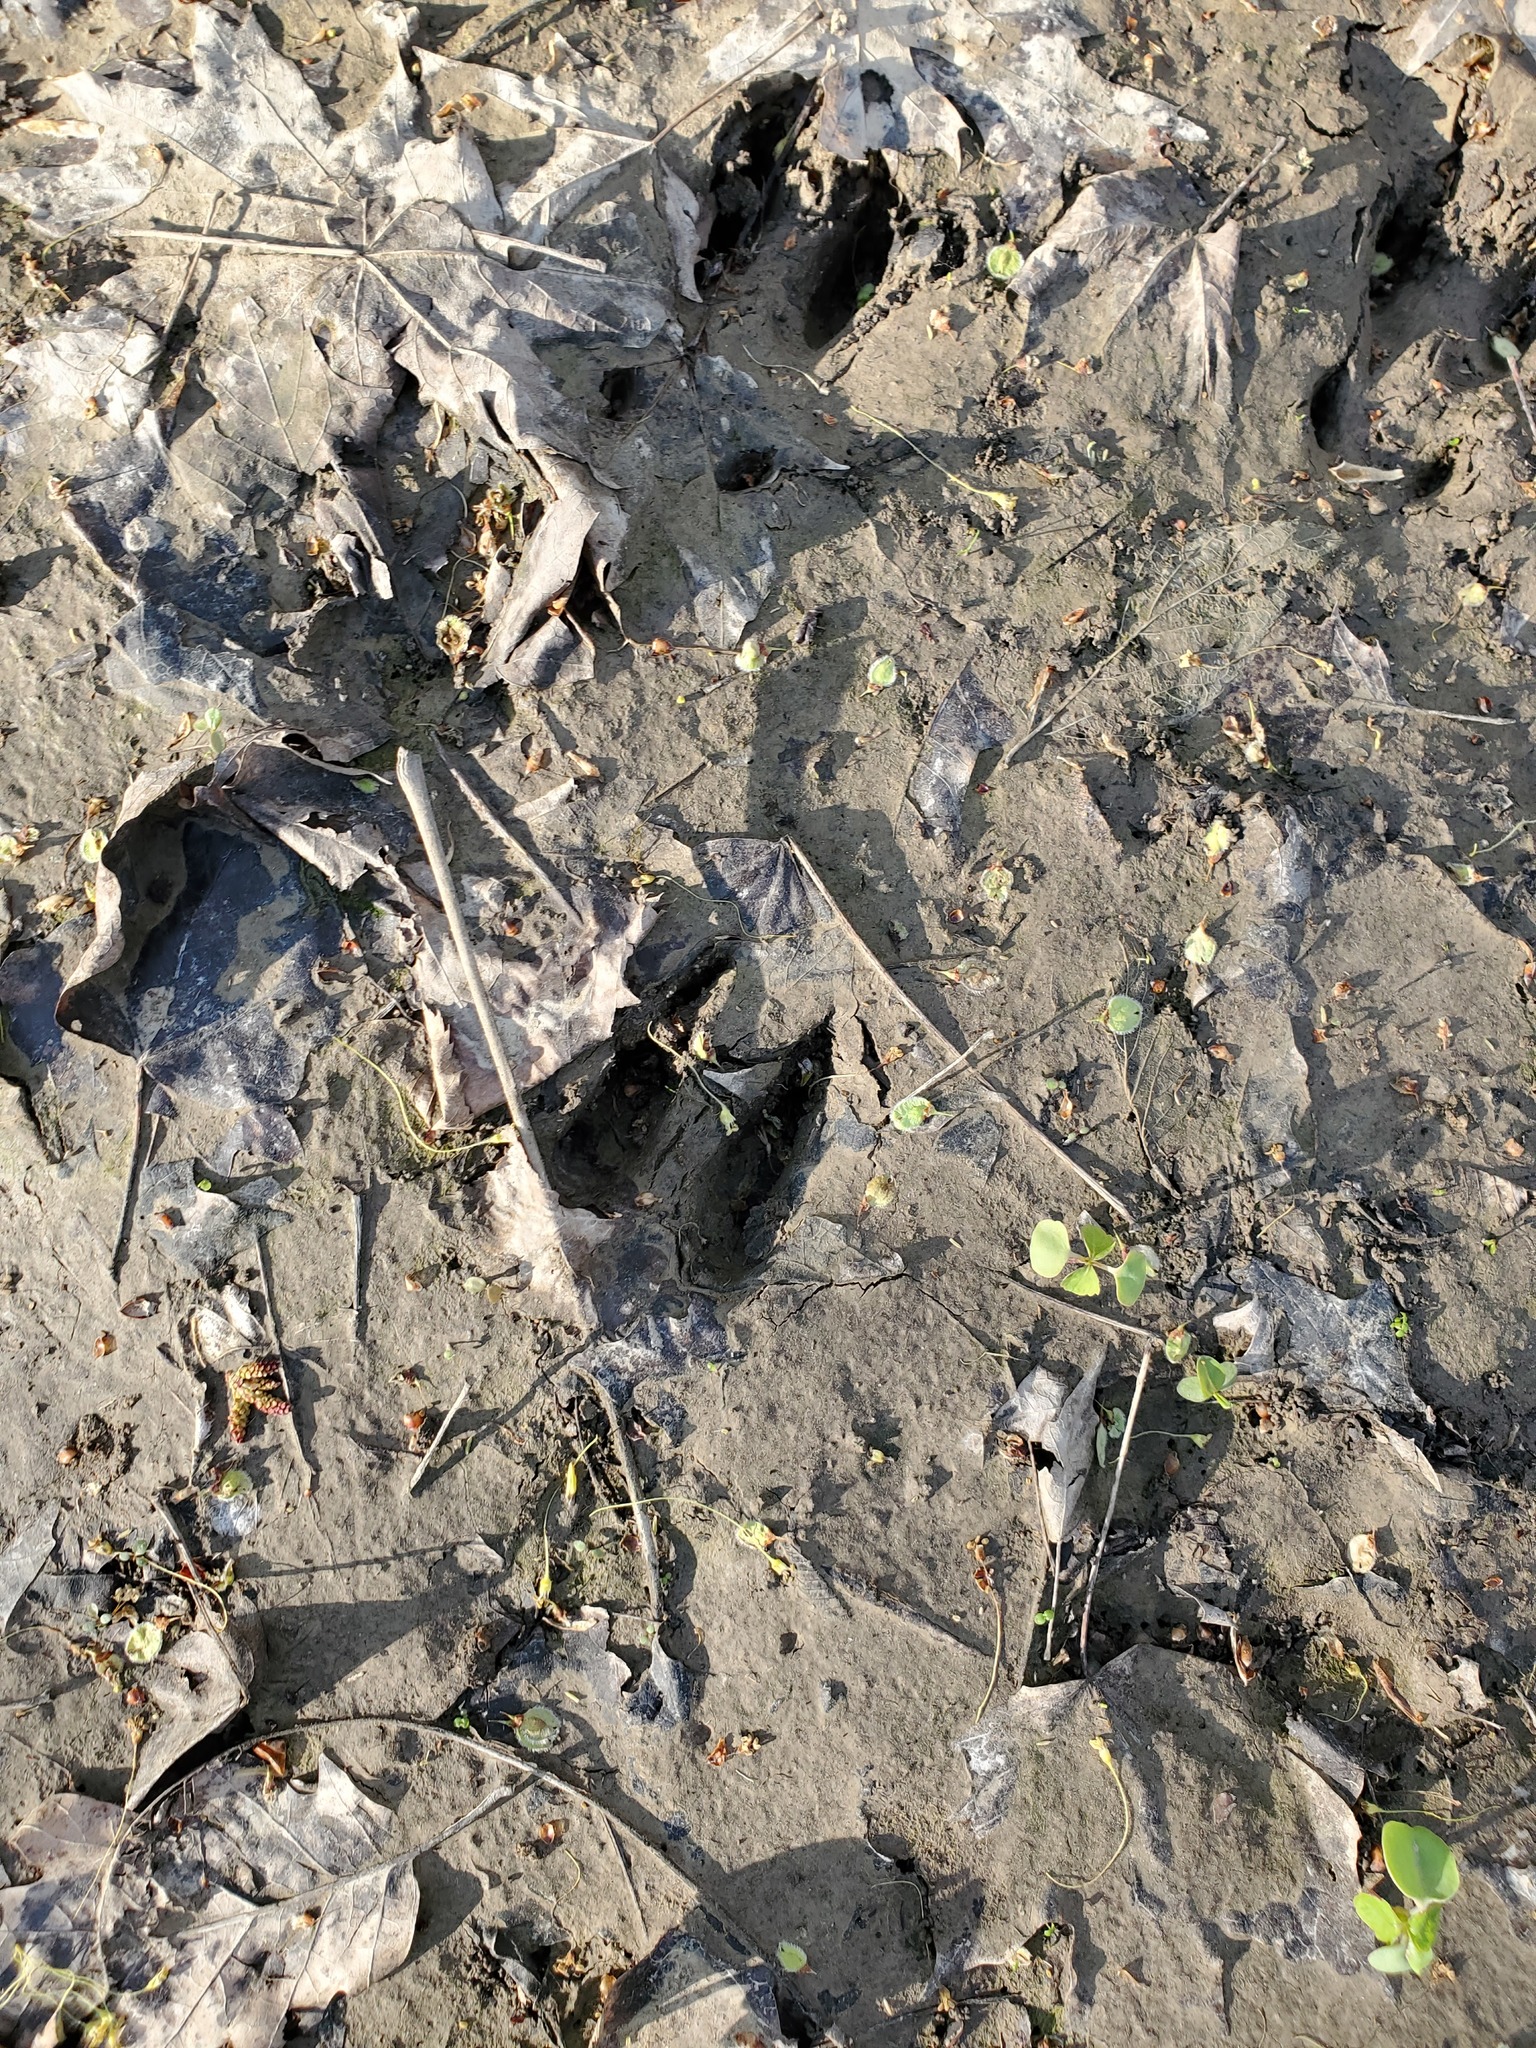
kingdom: Animalia
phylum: Chordata
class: Mammalia
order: Artiodactyla
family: Cervidae
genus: Odocoileus
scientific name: Odocoileus virginianus
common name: White-tailed deer
